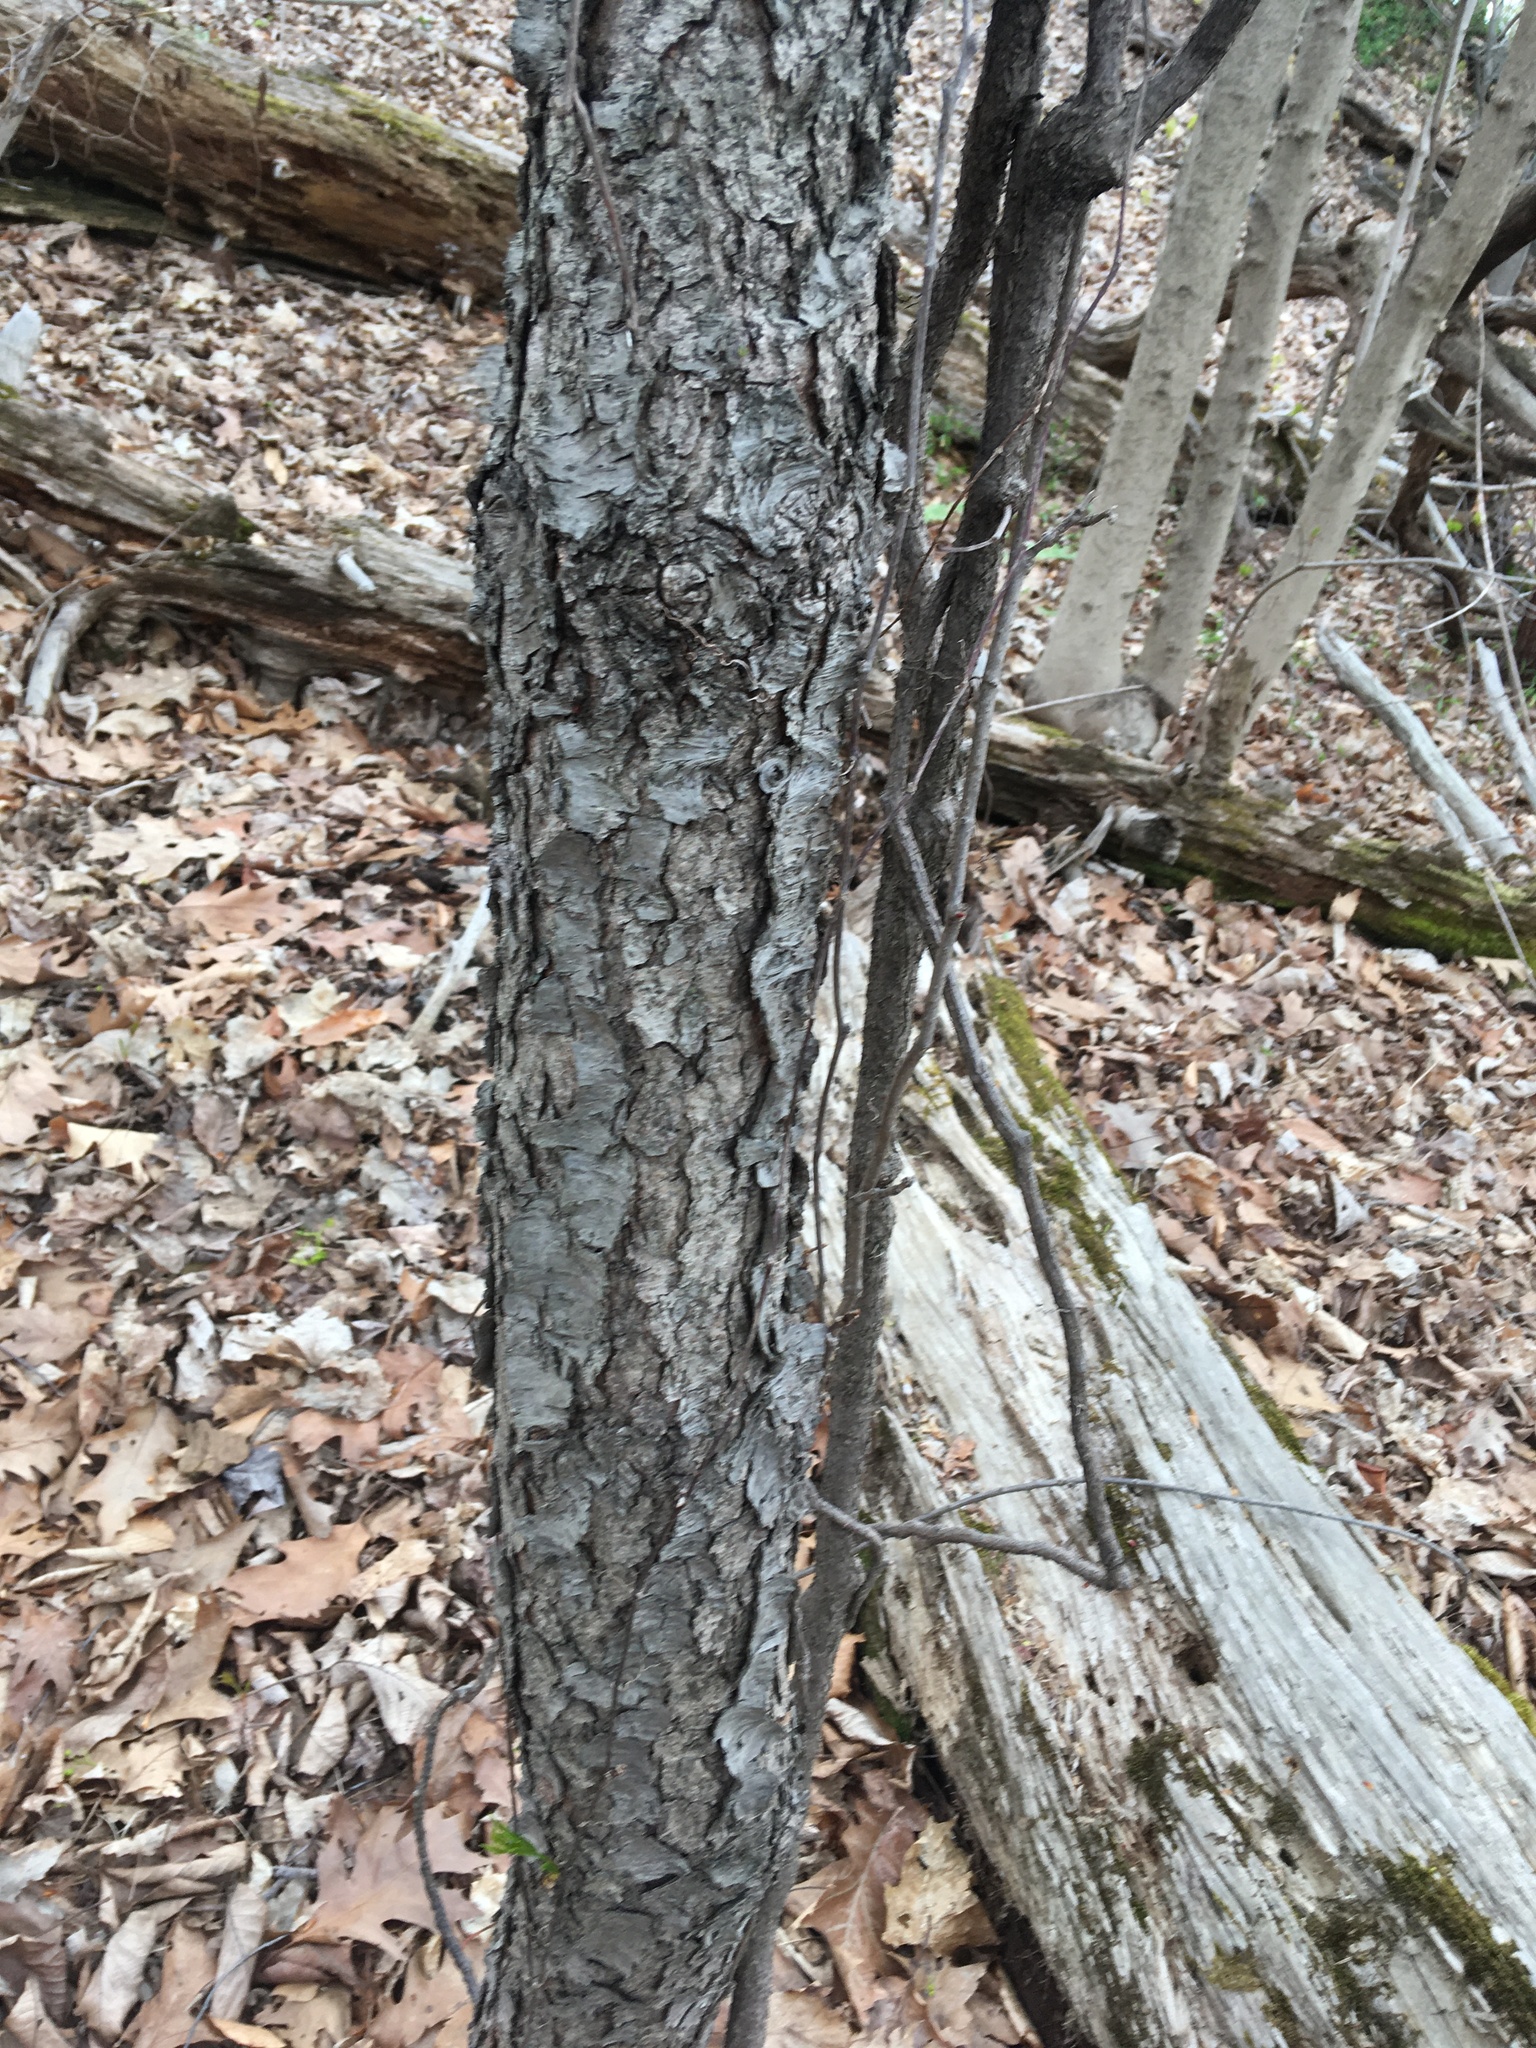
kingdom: Plantae
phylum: Tracheophyta
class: Magnoliopsida
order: Rosales
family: Rosaceae
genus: Prunus
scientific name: Prunus serotina
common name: Black cherry
